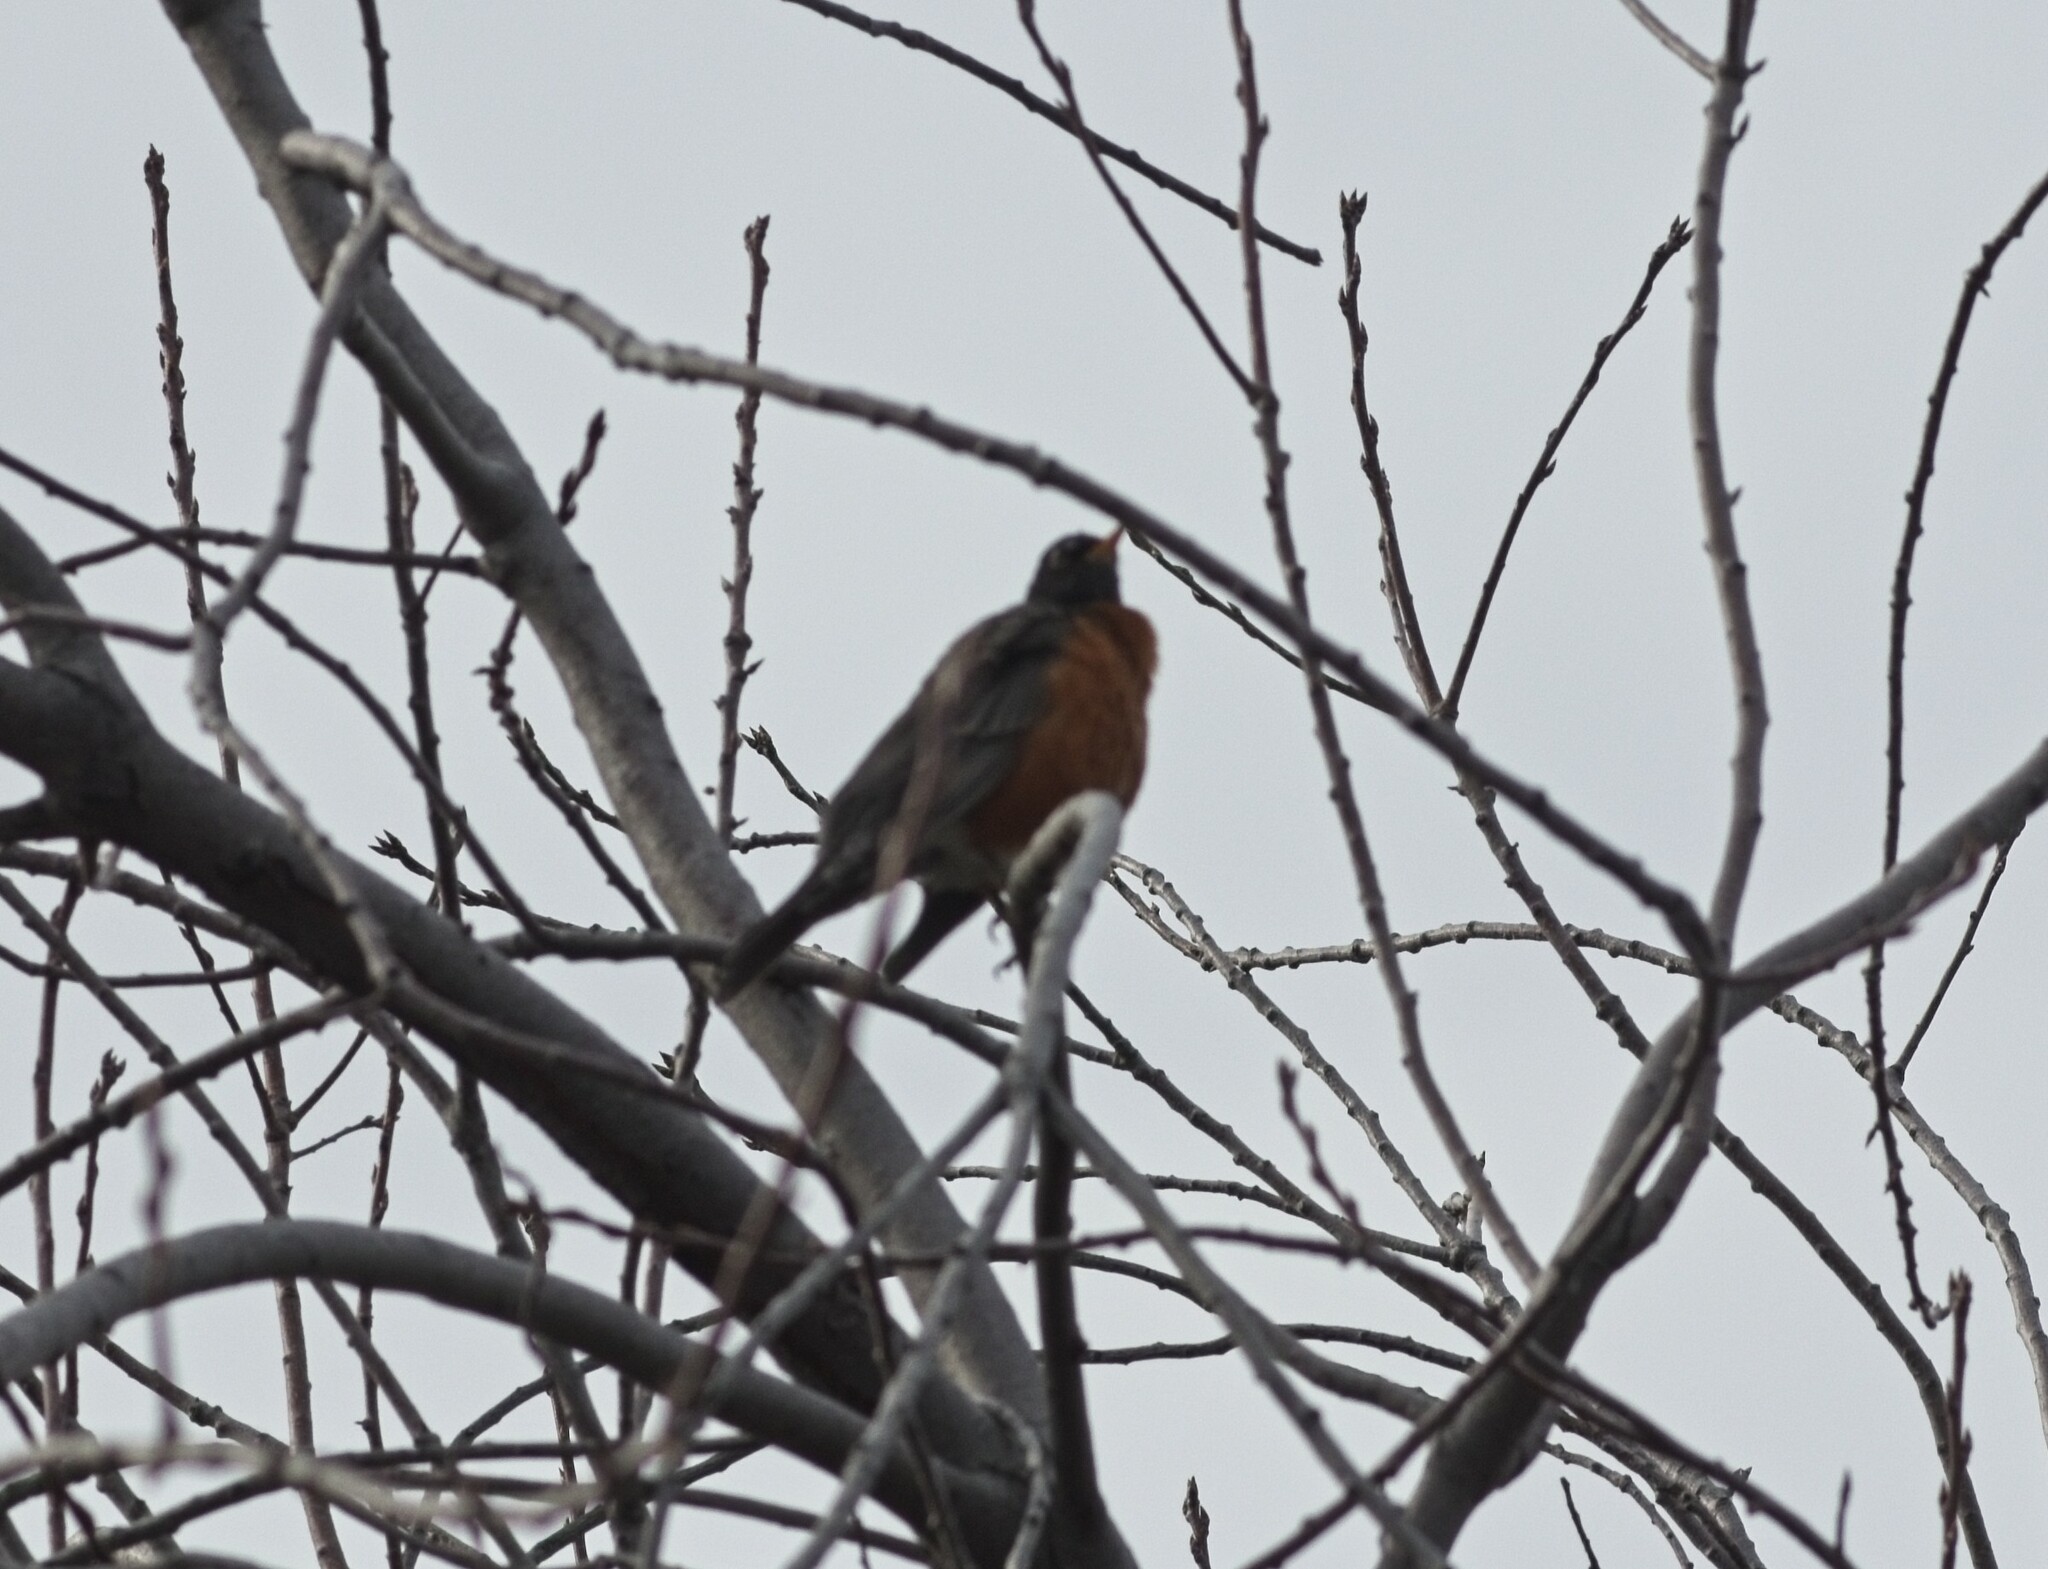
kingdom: Animalia
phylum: Chordata
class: Aves
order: Passeriformes
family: Turdidae
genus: Turdus
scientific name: Turdus migratorius
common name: American robin
